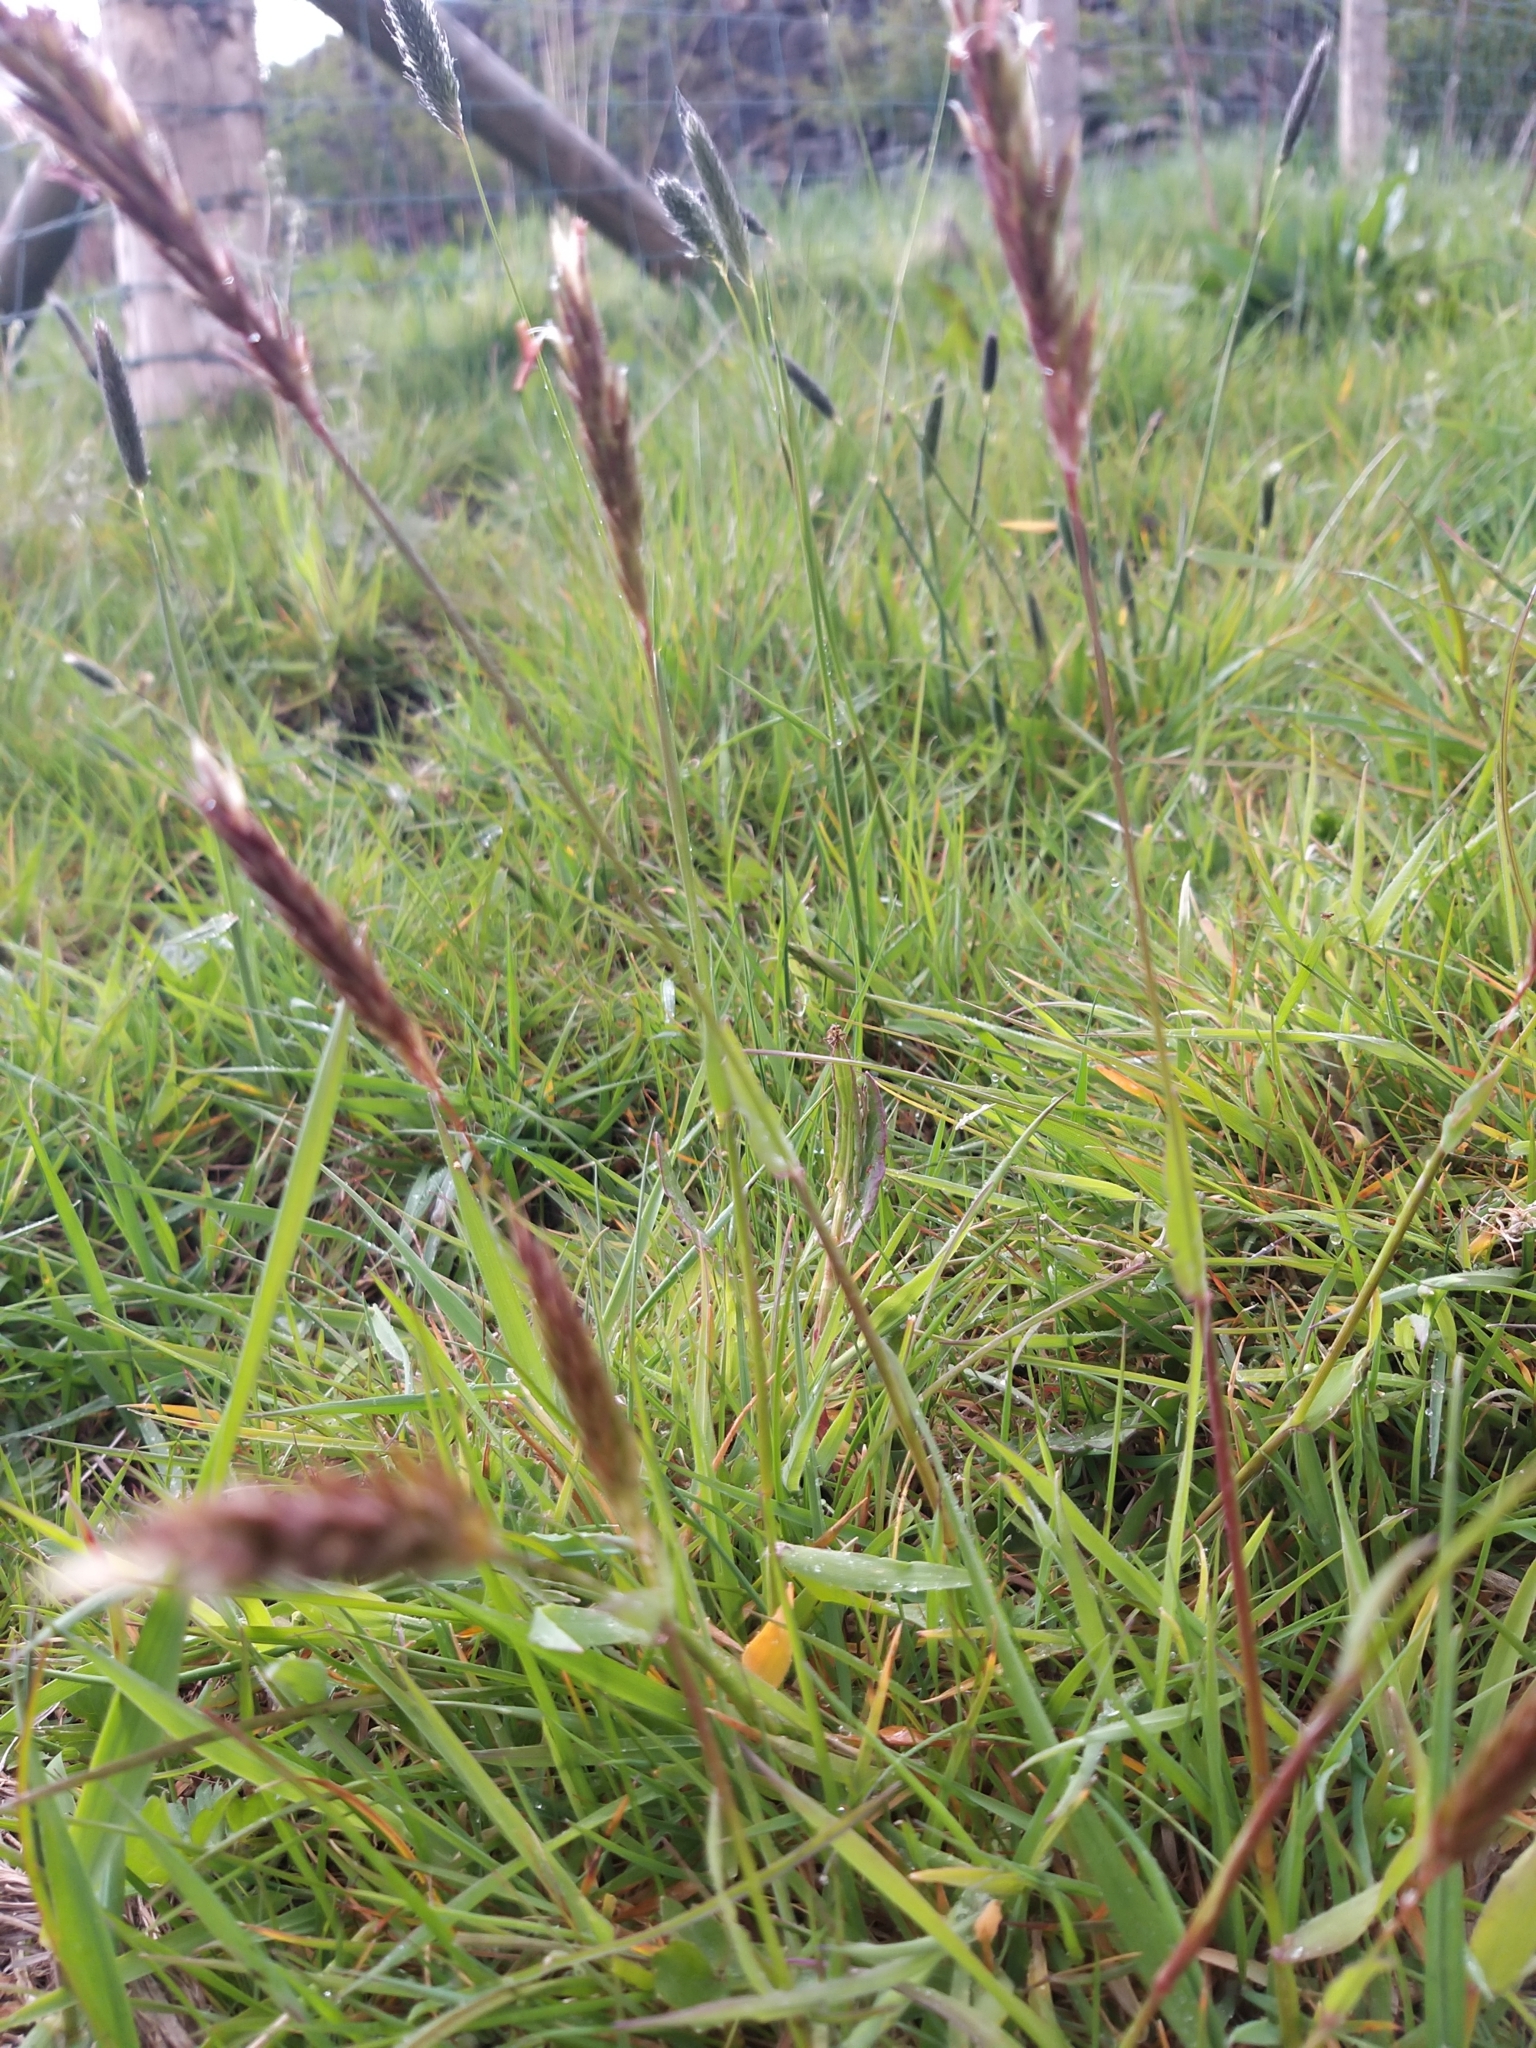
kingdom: Plantae
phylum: Tracheophyta
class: Liliopsida
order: Poales
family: Poaceae
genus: Anthoxanthum
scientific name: Anthoxanthum odoratum
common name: Sweet vernalgrass
